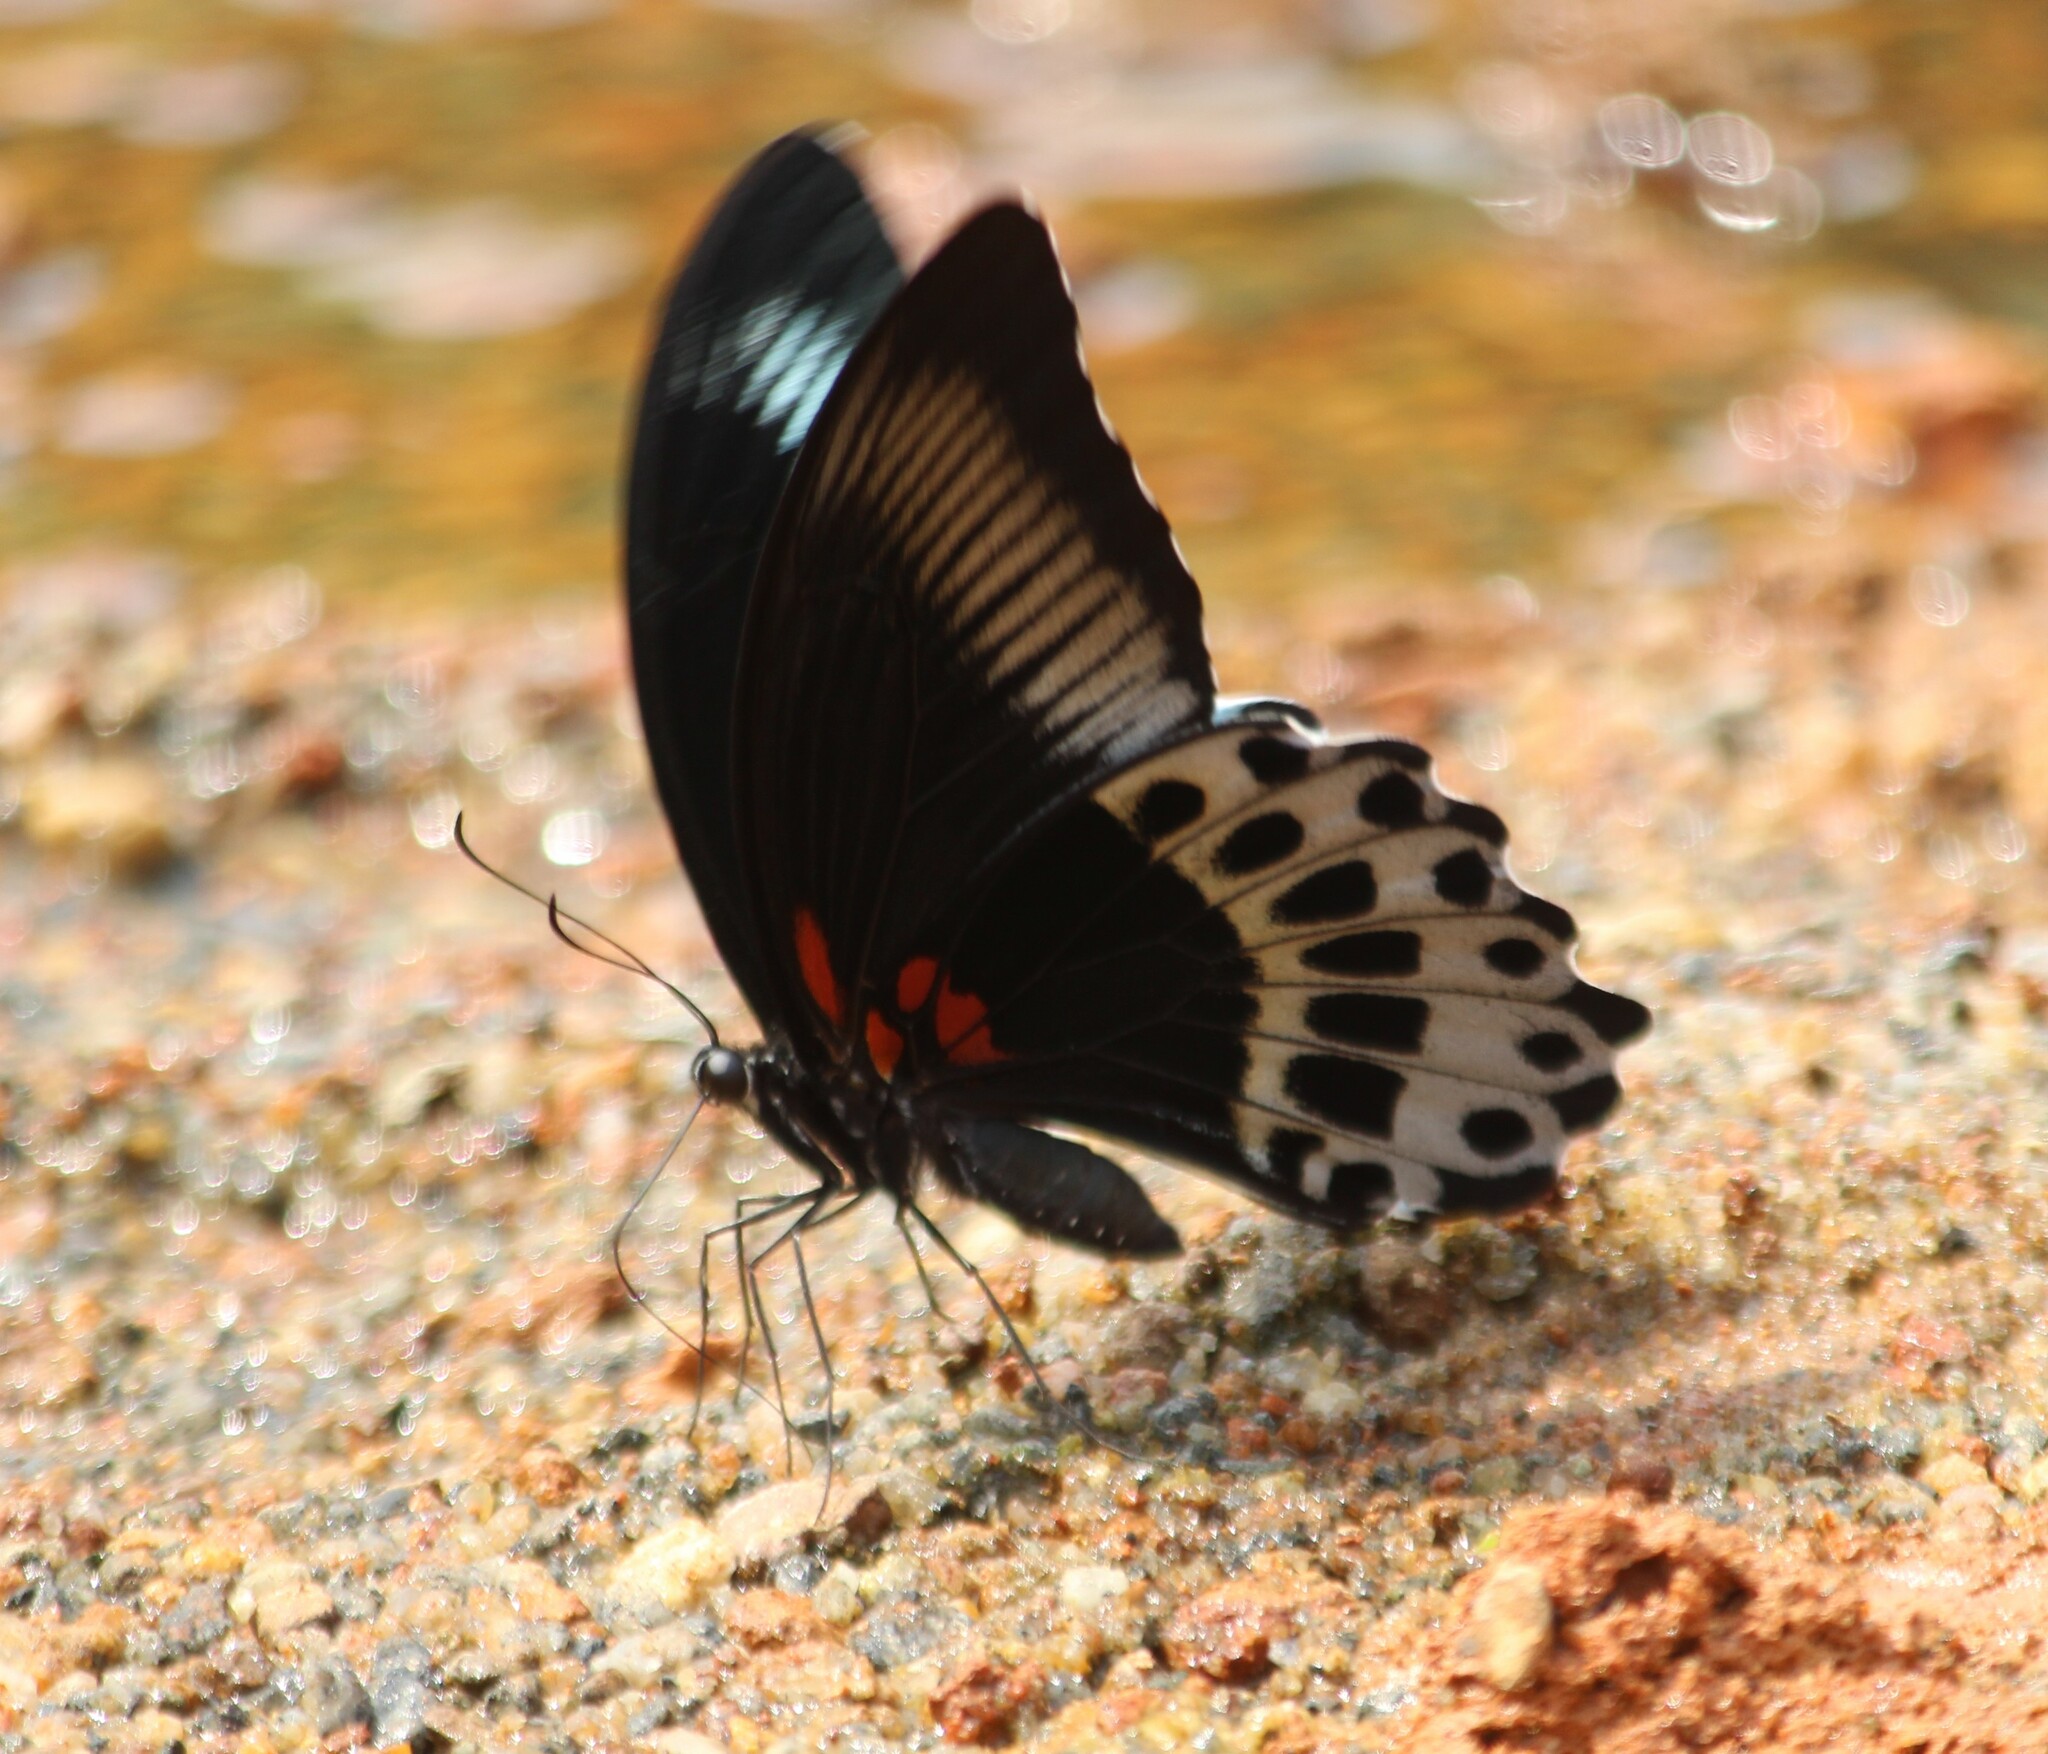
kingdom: Animalia
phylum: Arthropoda
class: Insecta
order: Lepidoptera
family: Papilionidae
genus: Papilio
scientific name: Papilio memnon
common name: Great mormon
